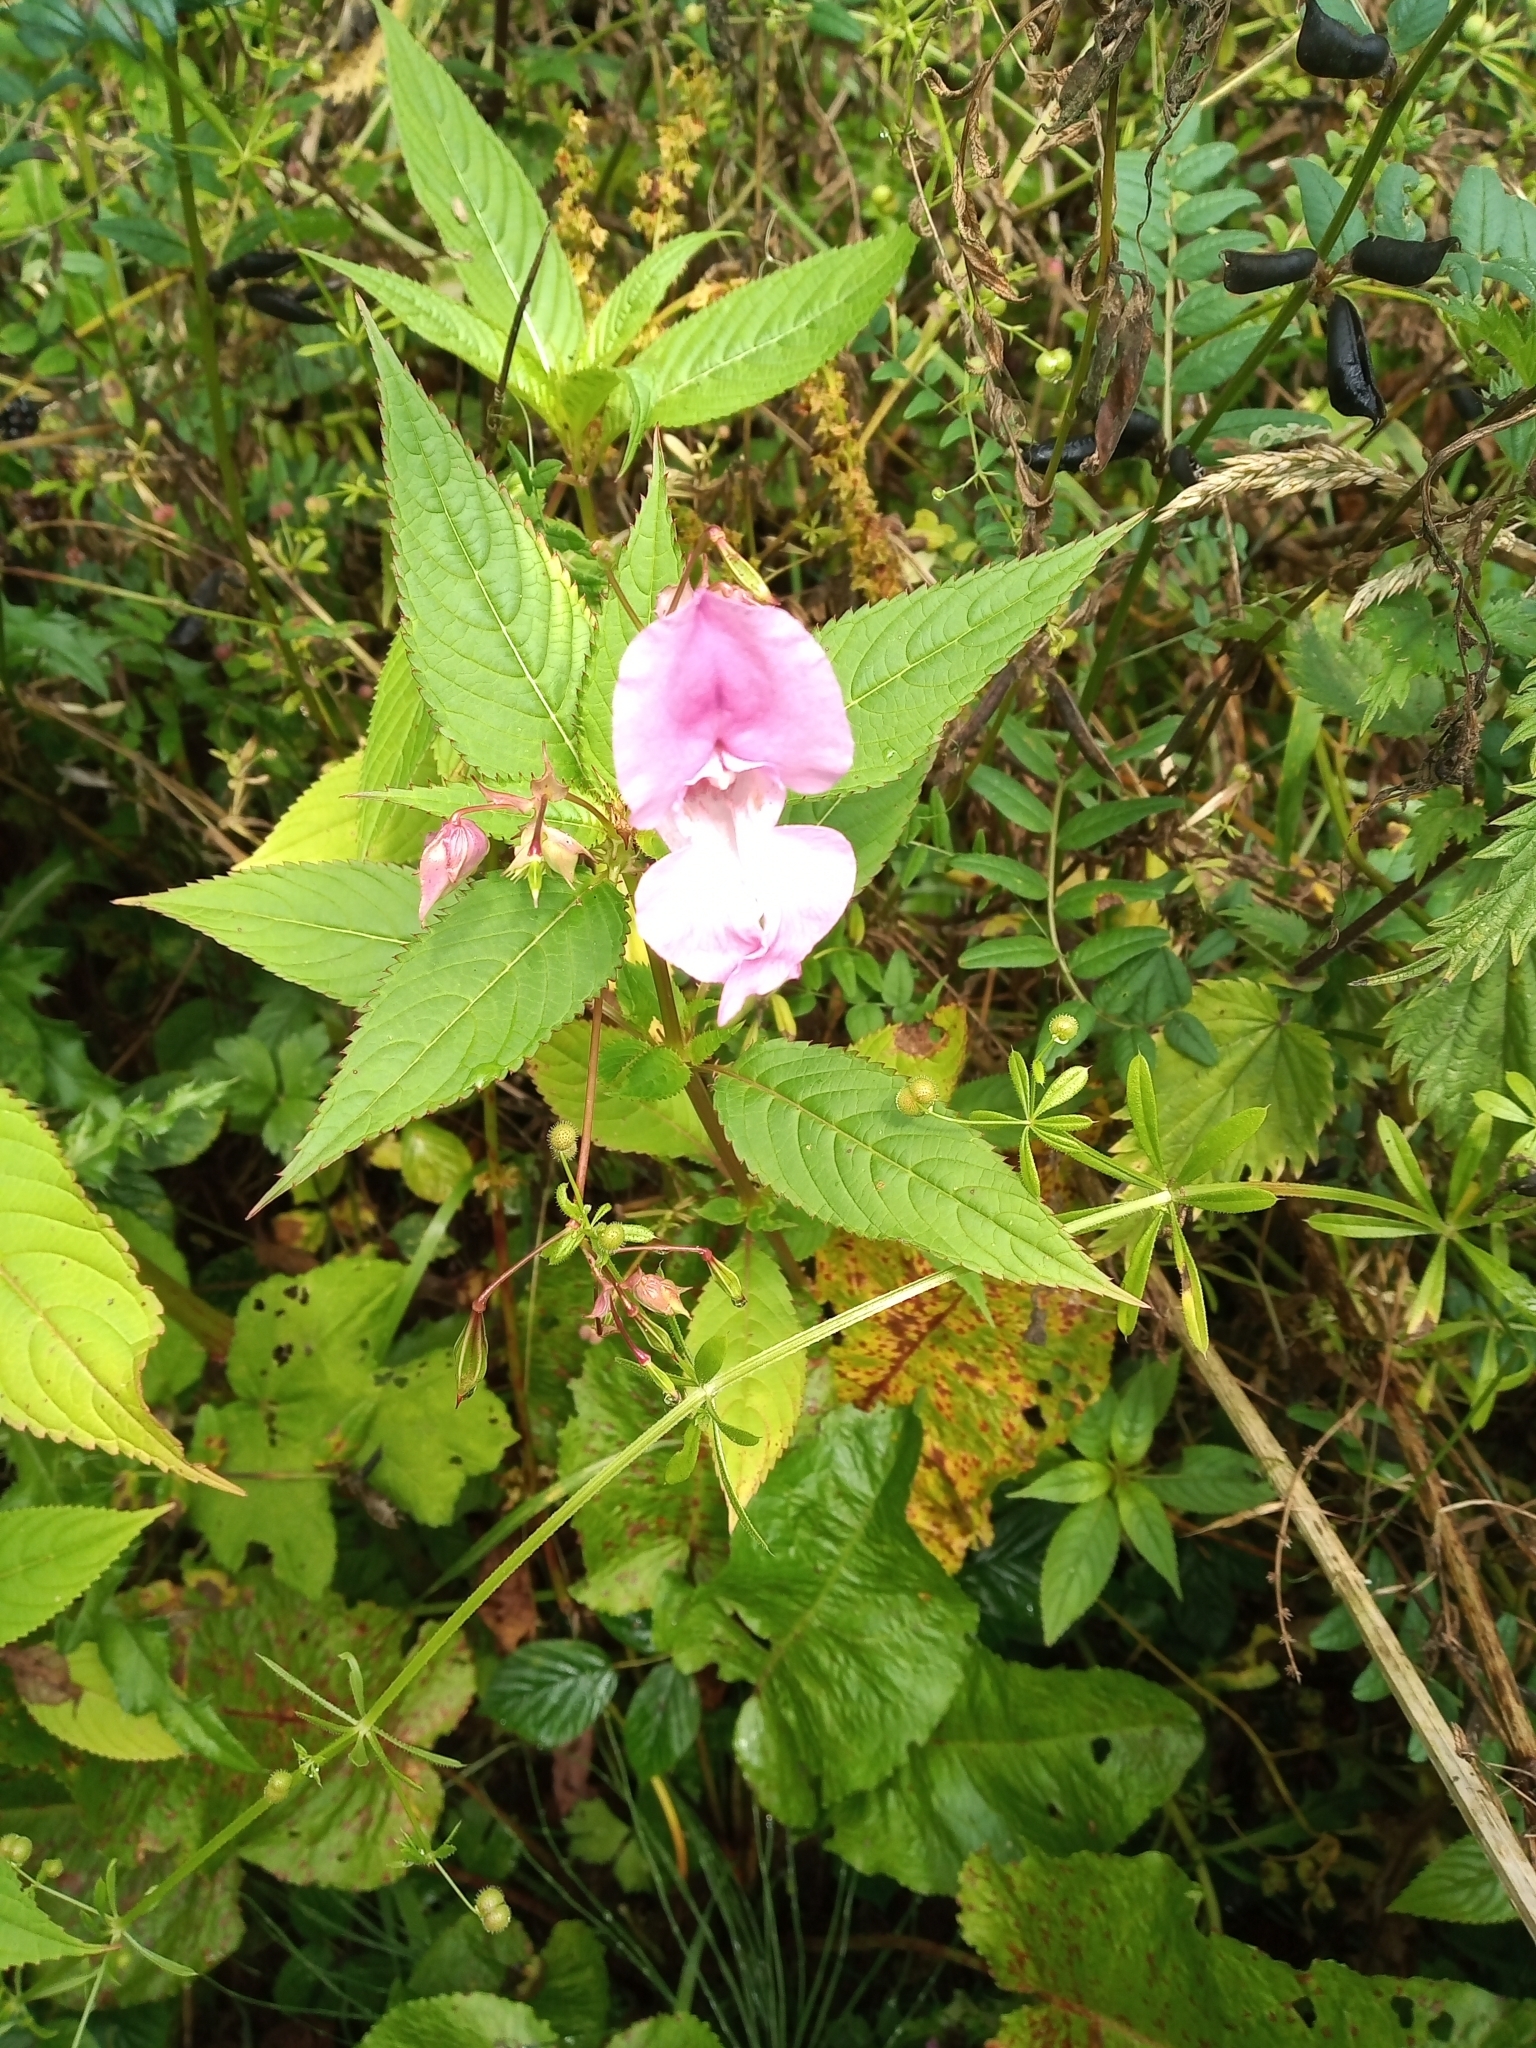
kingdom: Plantae
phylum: Tracheophyta
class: Magnoliopsida
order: Ericales
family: Balsaminaceae
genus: Impatiens
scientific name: Impatiens glandulifera
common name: Himalayan balsam
